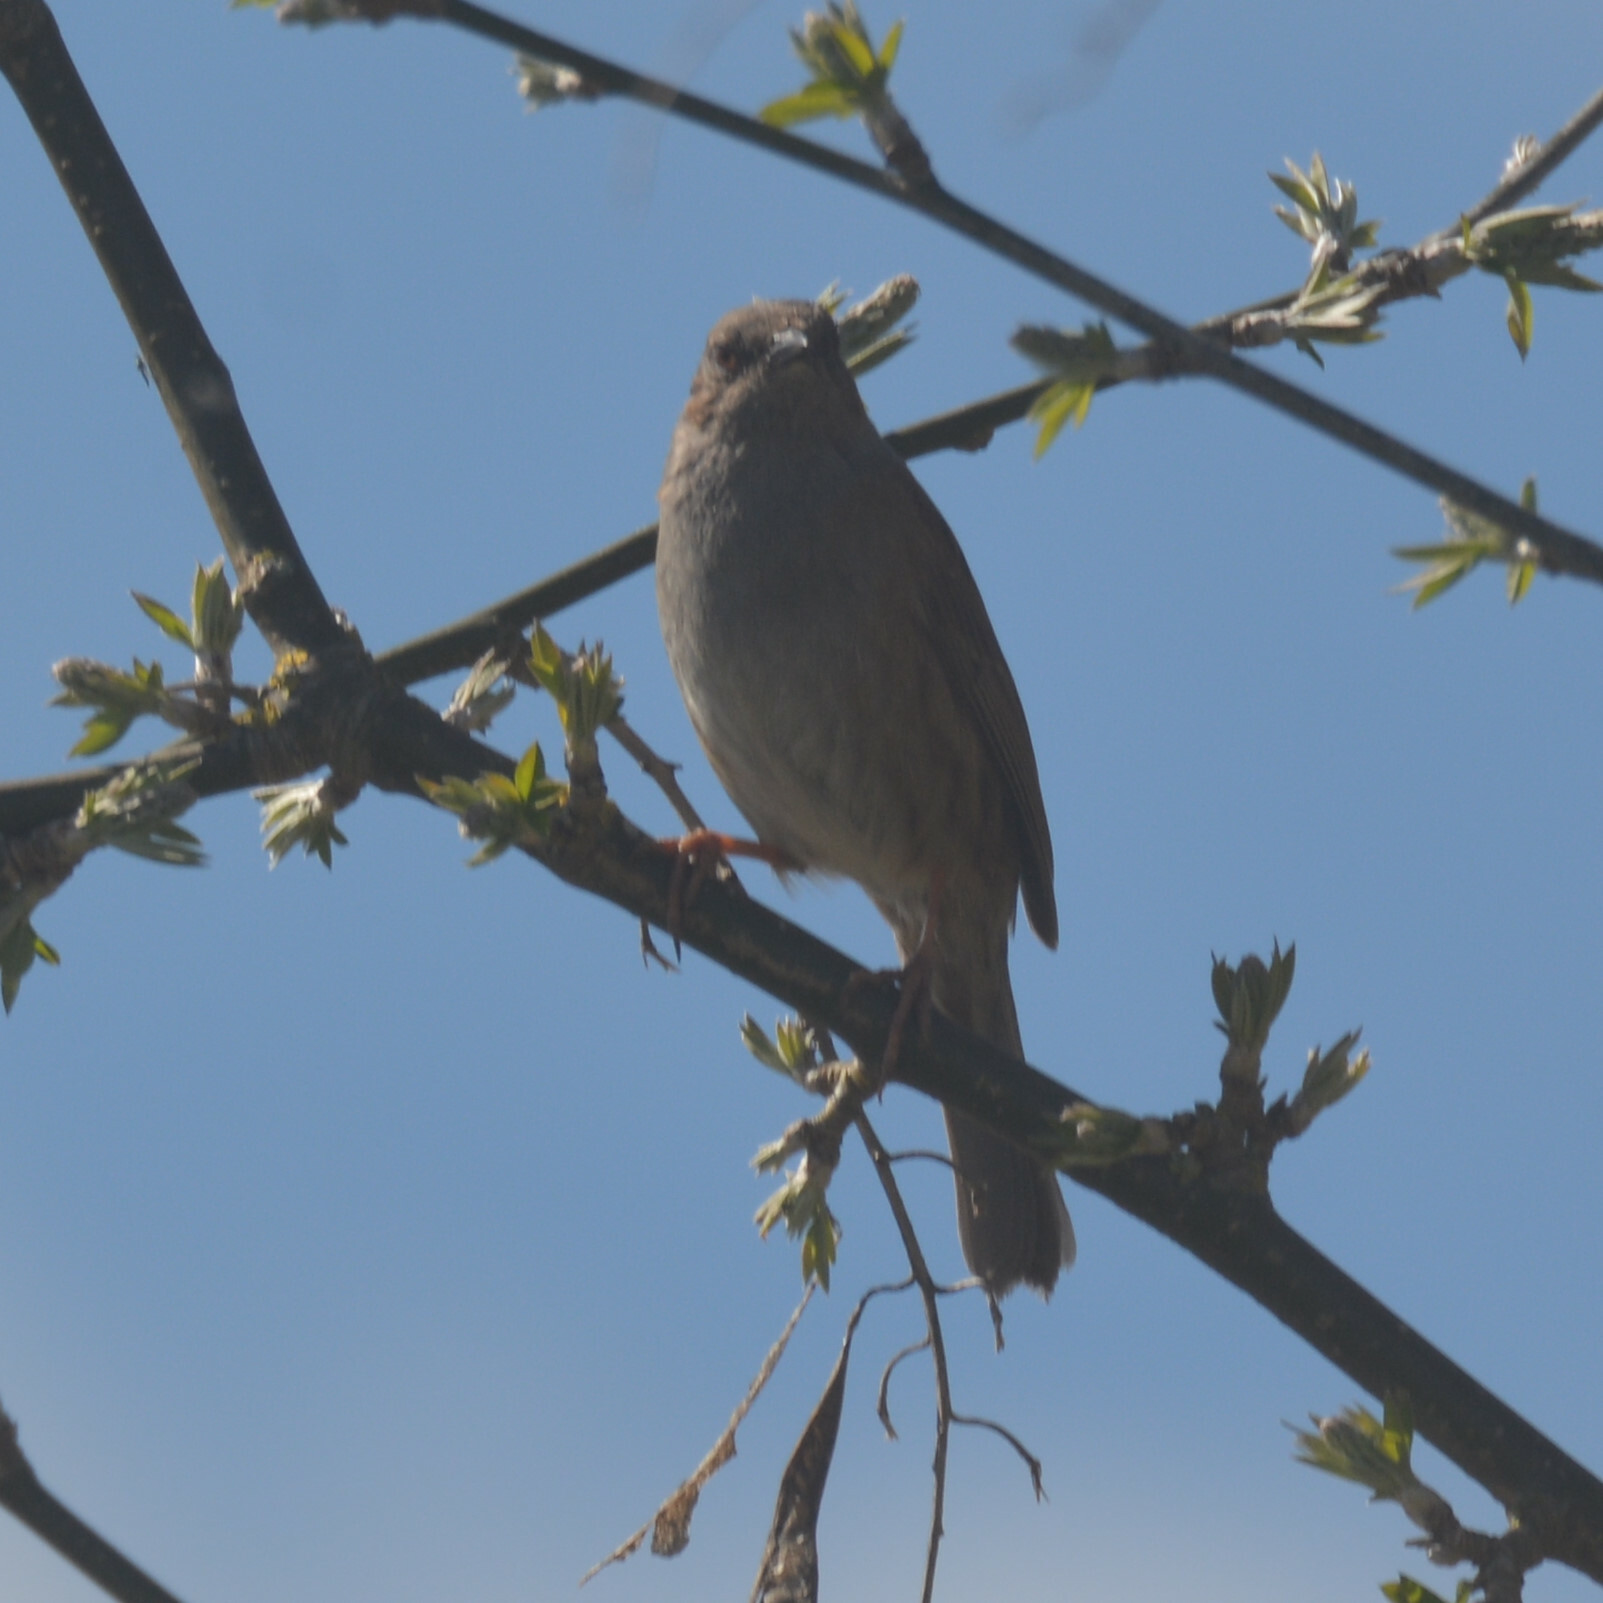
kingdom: Animalia
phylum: Chordata
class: Aves
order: Passeriformes
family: Prunellidae
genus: Prunella
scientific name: Prunella modularis
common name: Dunnock
